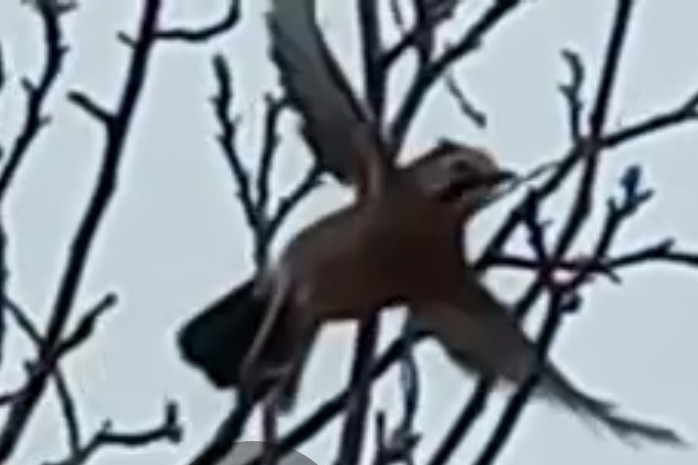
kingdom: Animalia
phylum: Chordata
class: Aves
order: Passeriformes
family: Corvidae
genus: Garrulus
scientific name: Garrulus glandarius
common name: Eurasian jay
